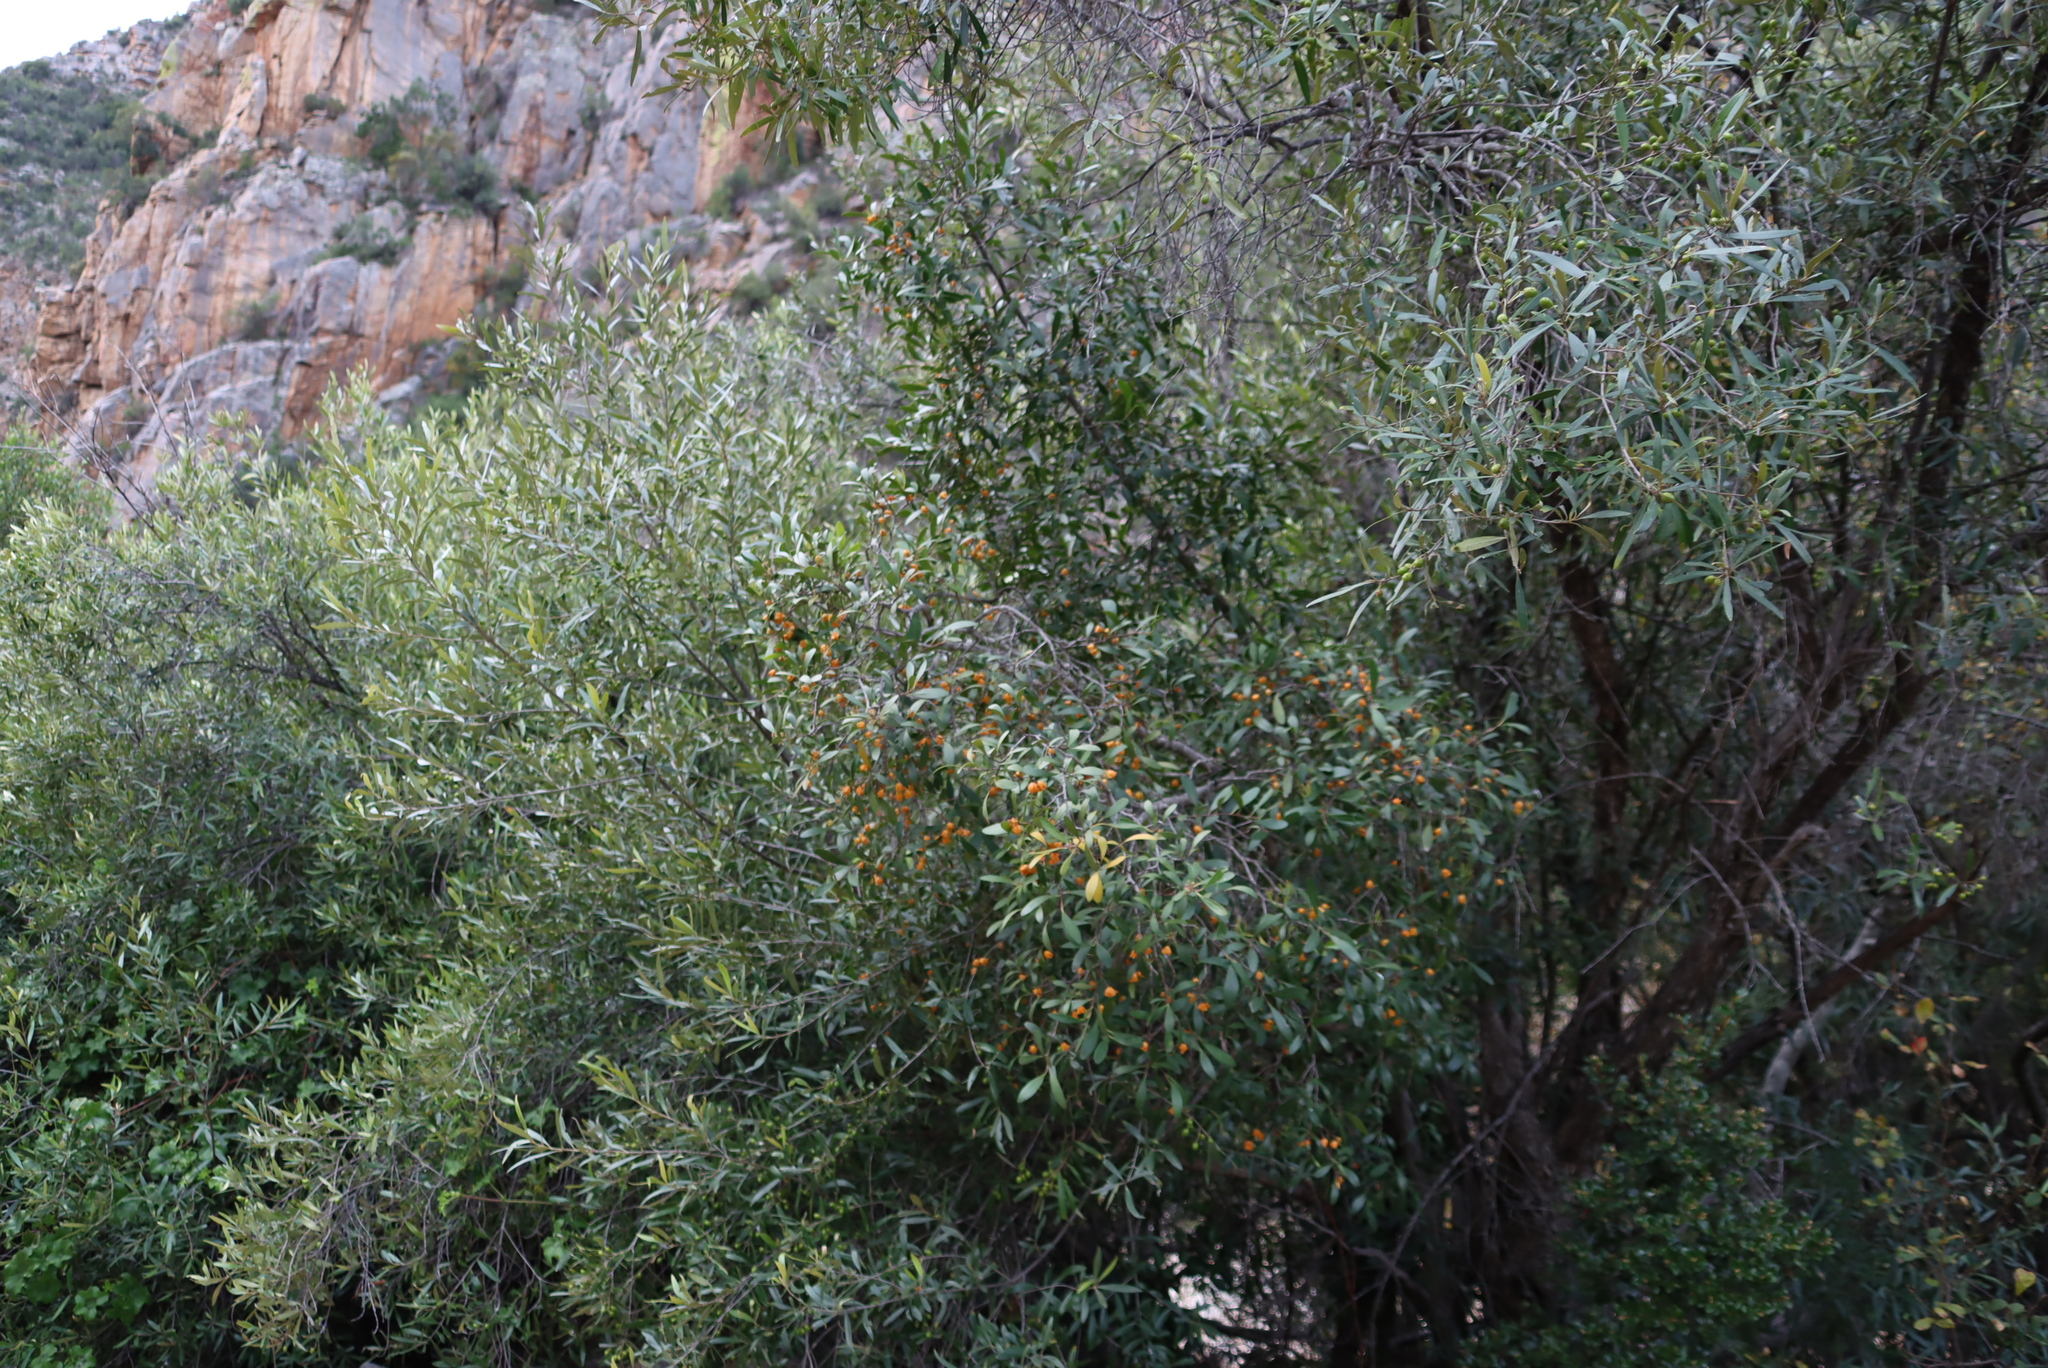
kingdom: Plantae
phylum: Tracheophyta
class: Magnoliopsida
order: Celastrales
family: Celastraceae
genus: Pterocelastrus
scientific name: Pterocelastrus tricuspidatus
